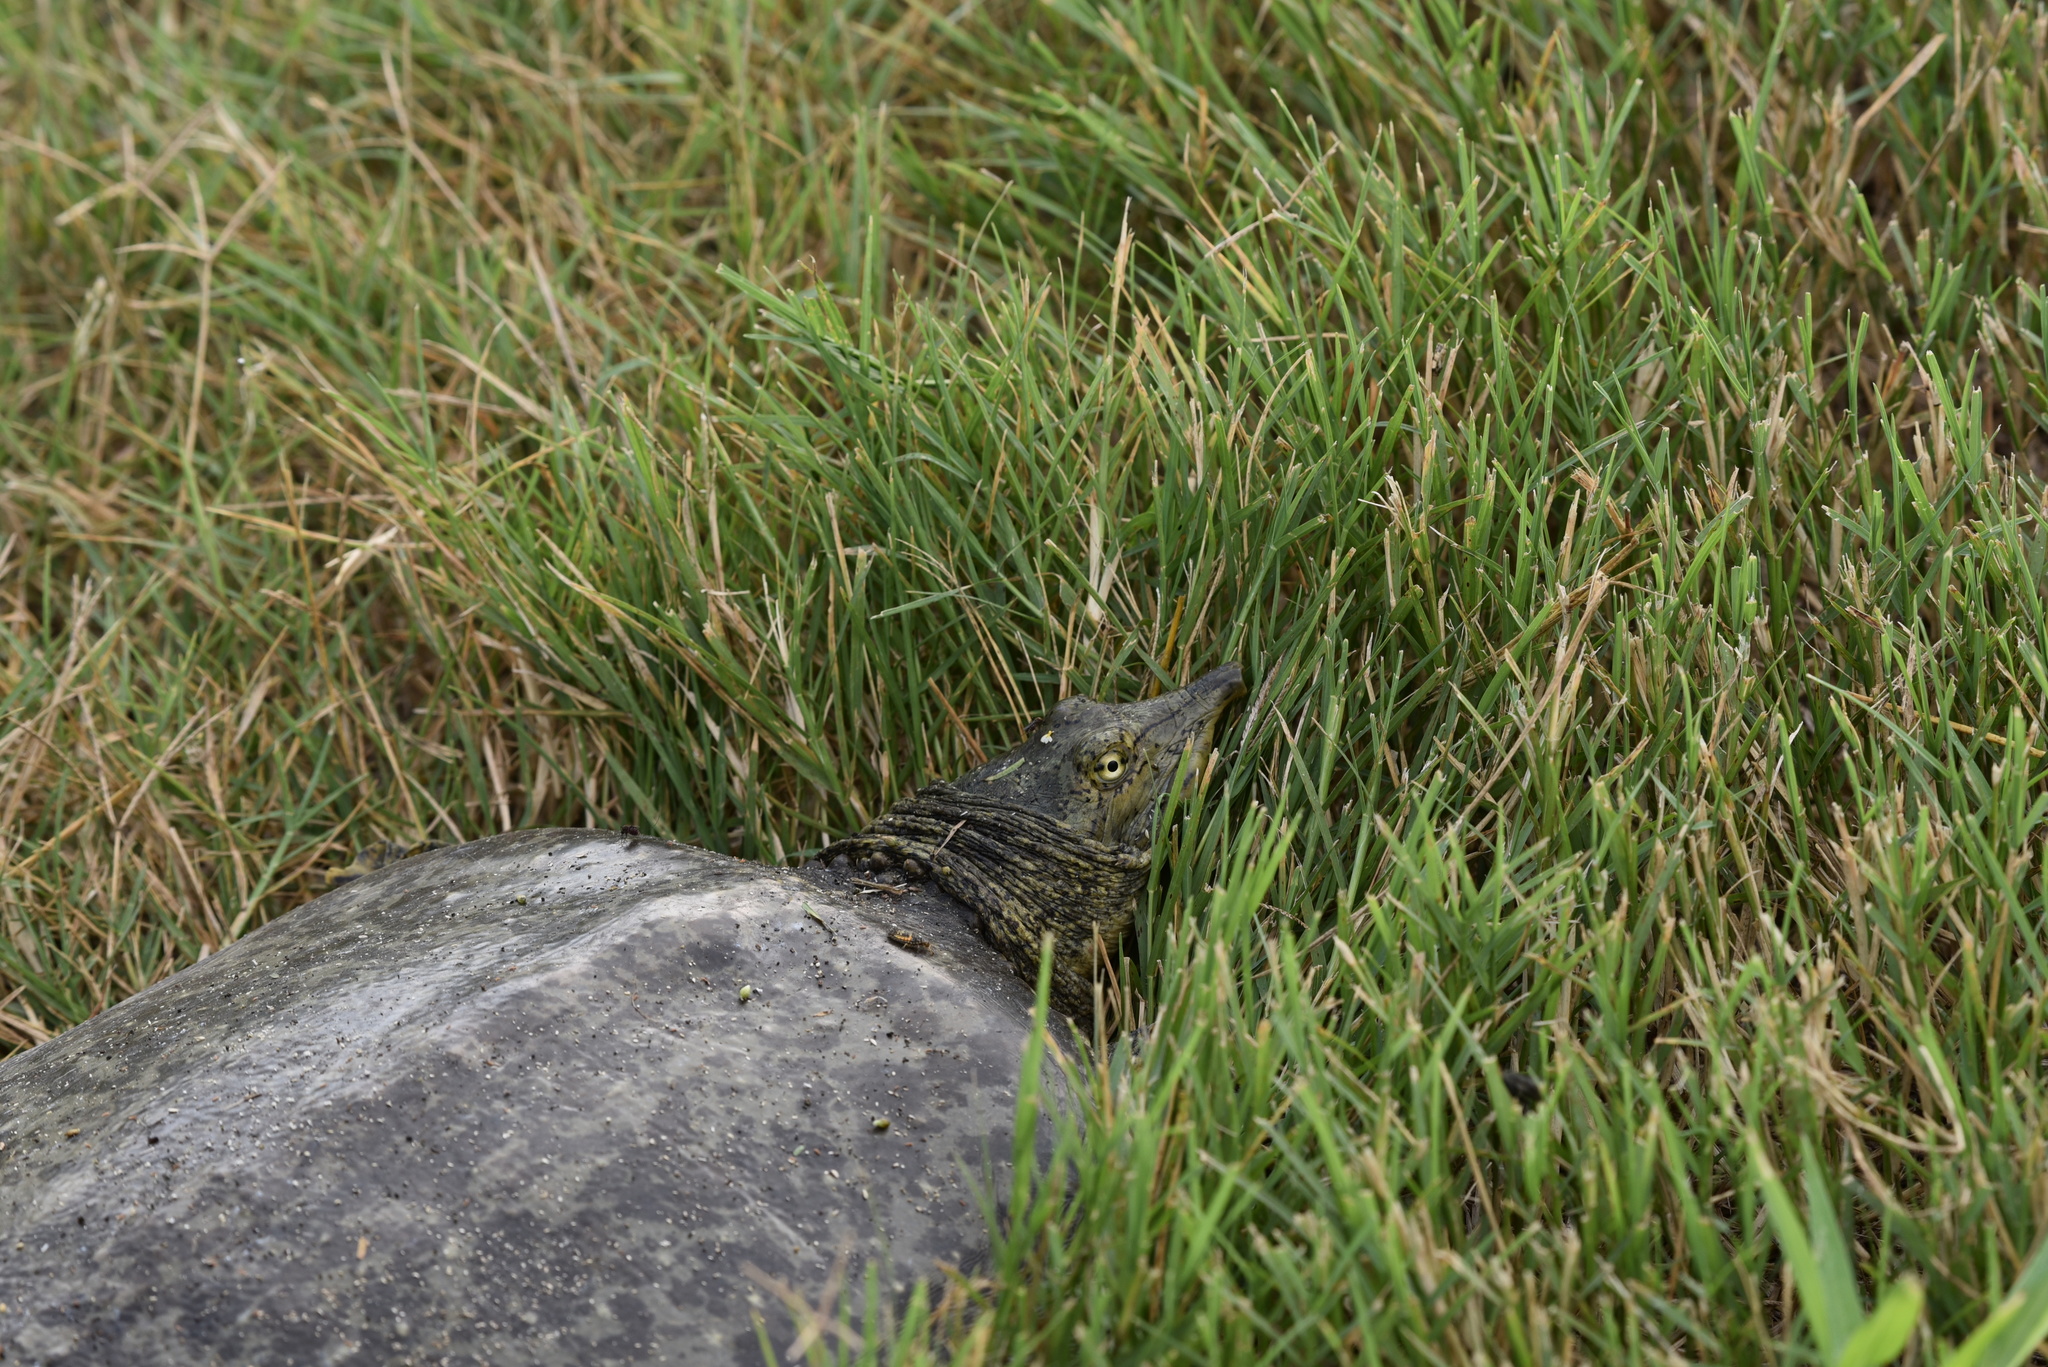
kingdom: Animalia
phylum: Chordata
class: Testudines
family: Trionychidae
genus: Apalone
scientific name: Apalone spinifera
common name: Spiny softshell turtle
